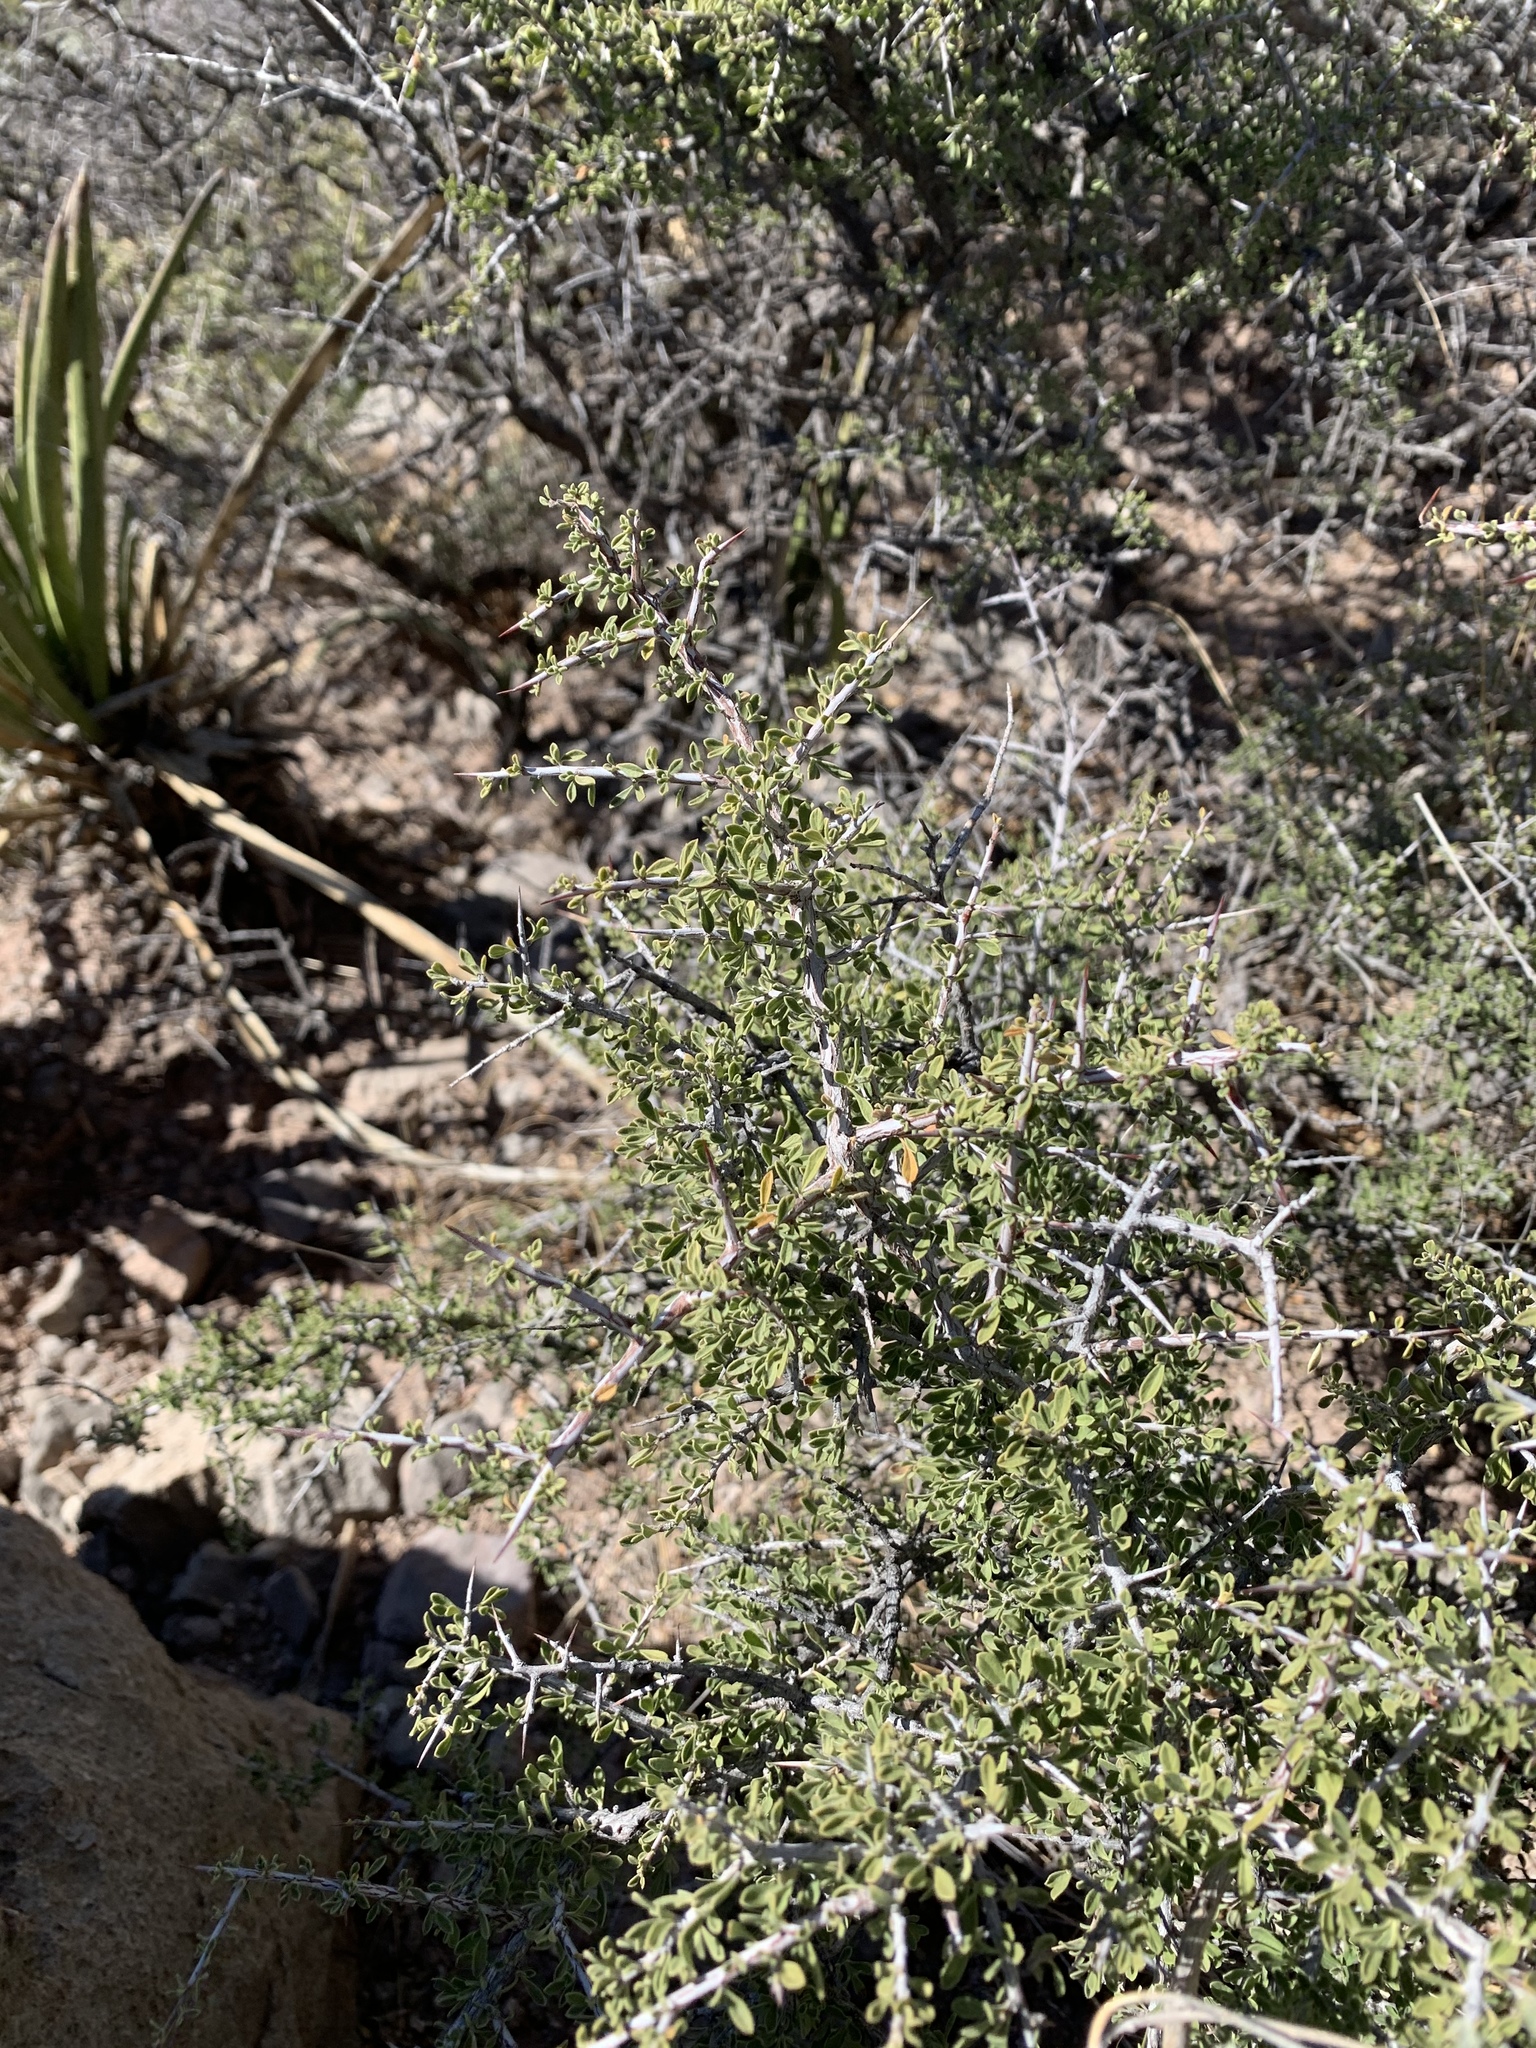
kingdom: Plantae
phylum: Tracheophyta
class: Magnoliopsida
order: Rosales
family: Rhamnaceae
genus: Condalia
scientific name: Condalia warnockii
